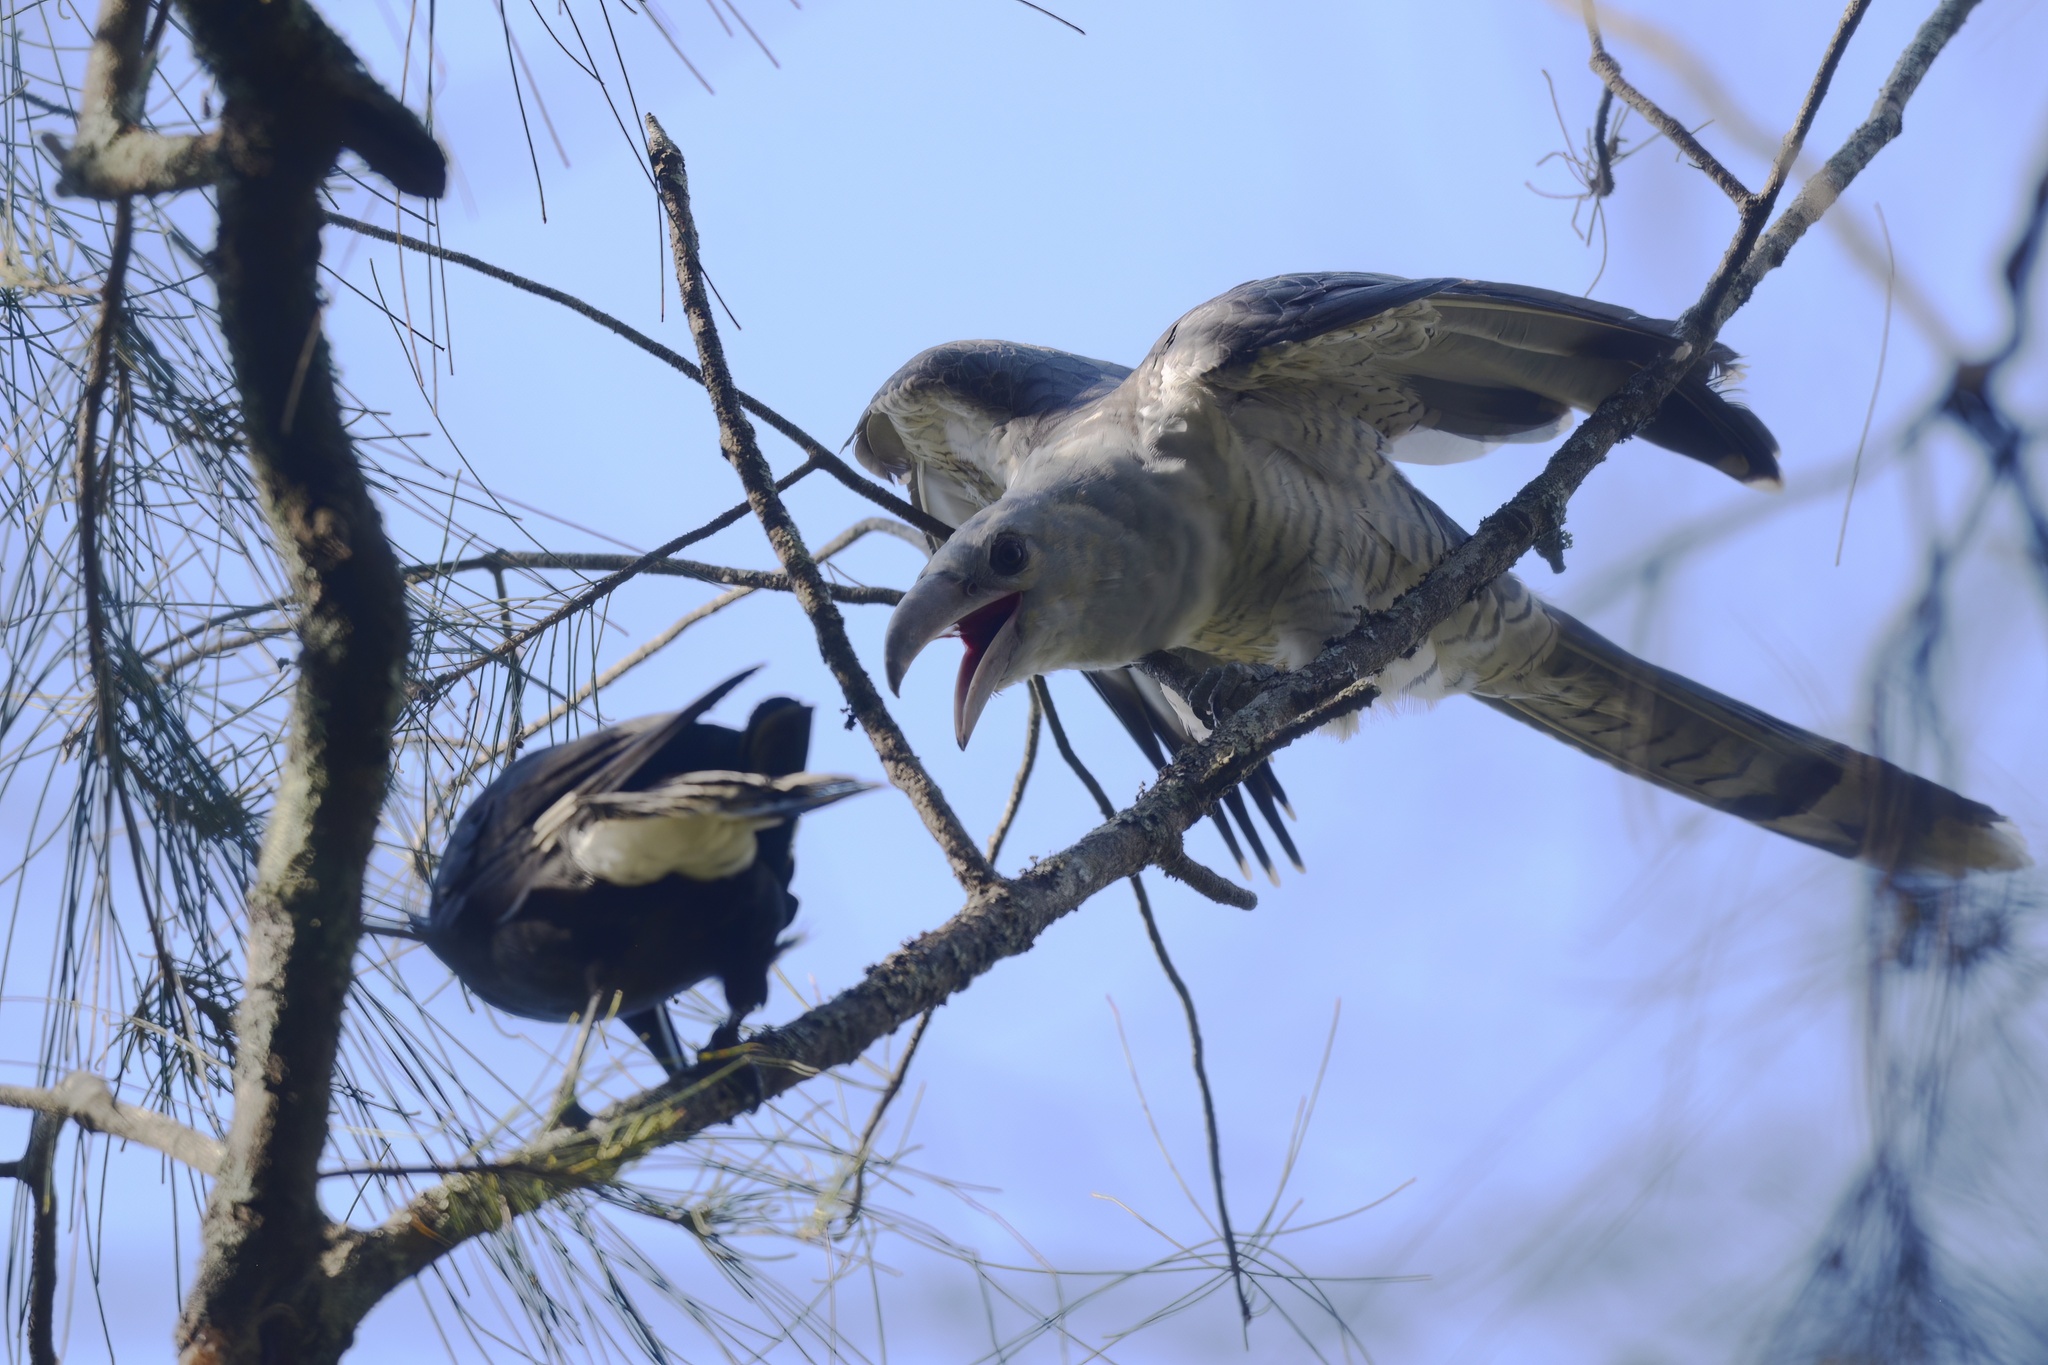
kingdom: Animalia
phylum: Chordata
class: Aves
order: Cuculiformes
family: Cuculidae
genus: Scythrops
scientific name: Scythrops novaehollandiae
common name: Channel-billed cuckoo
